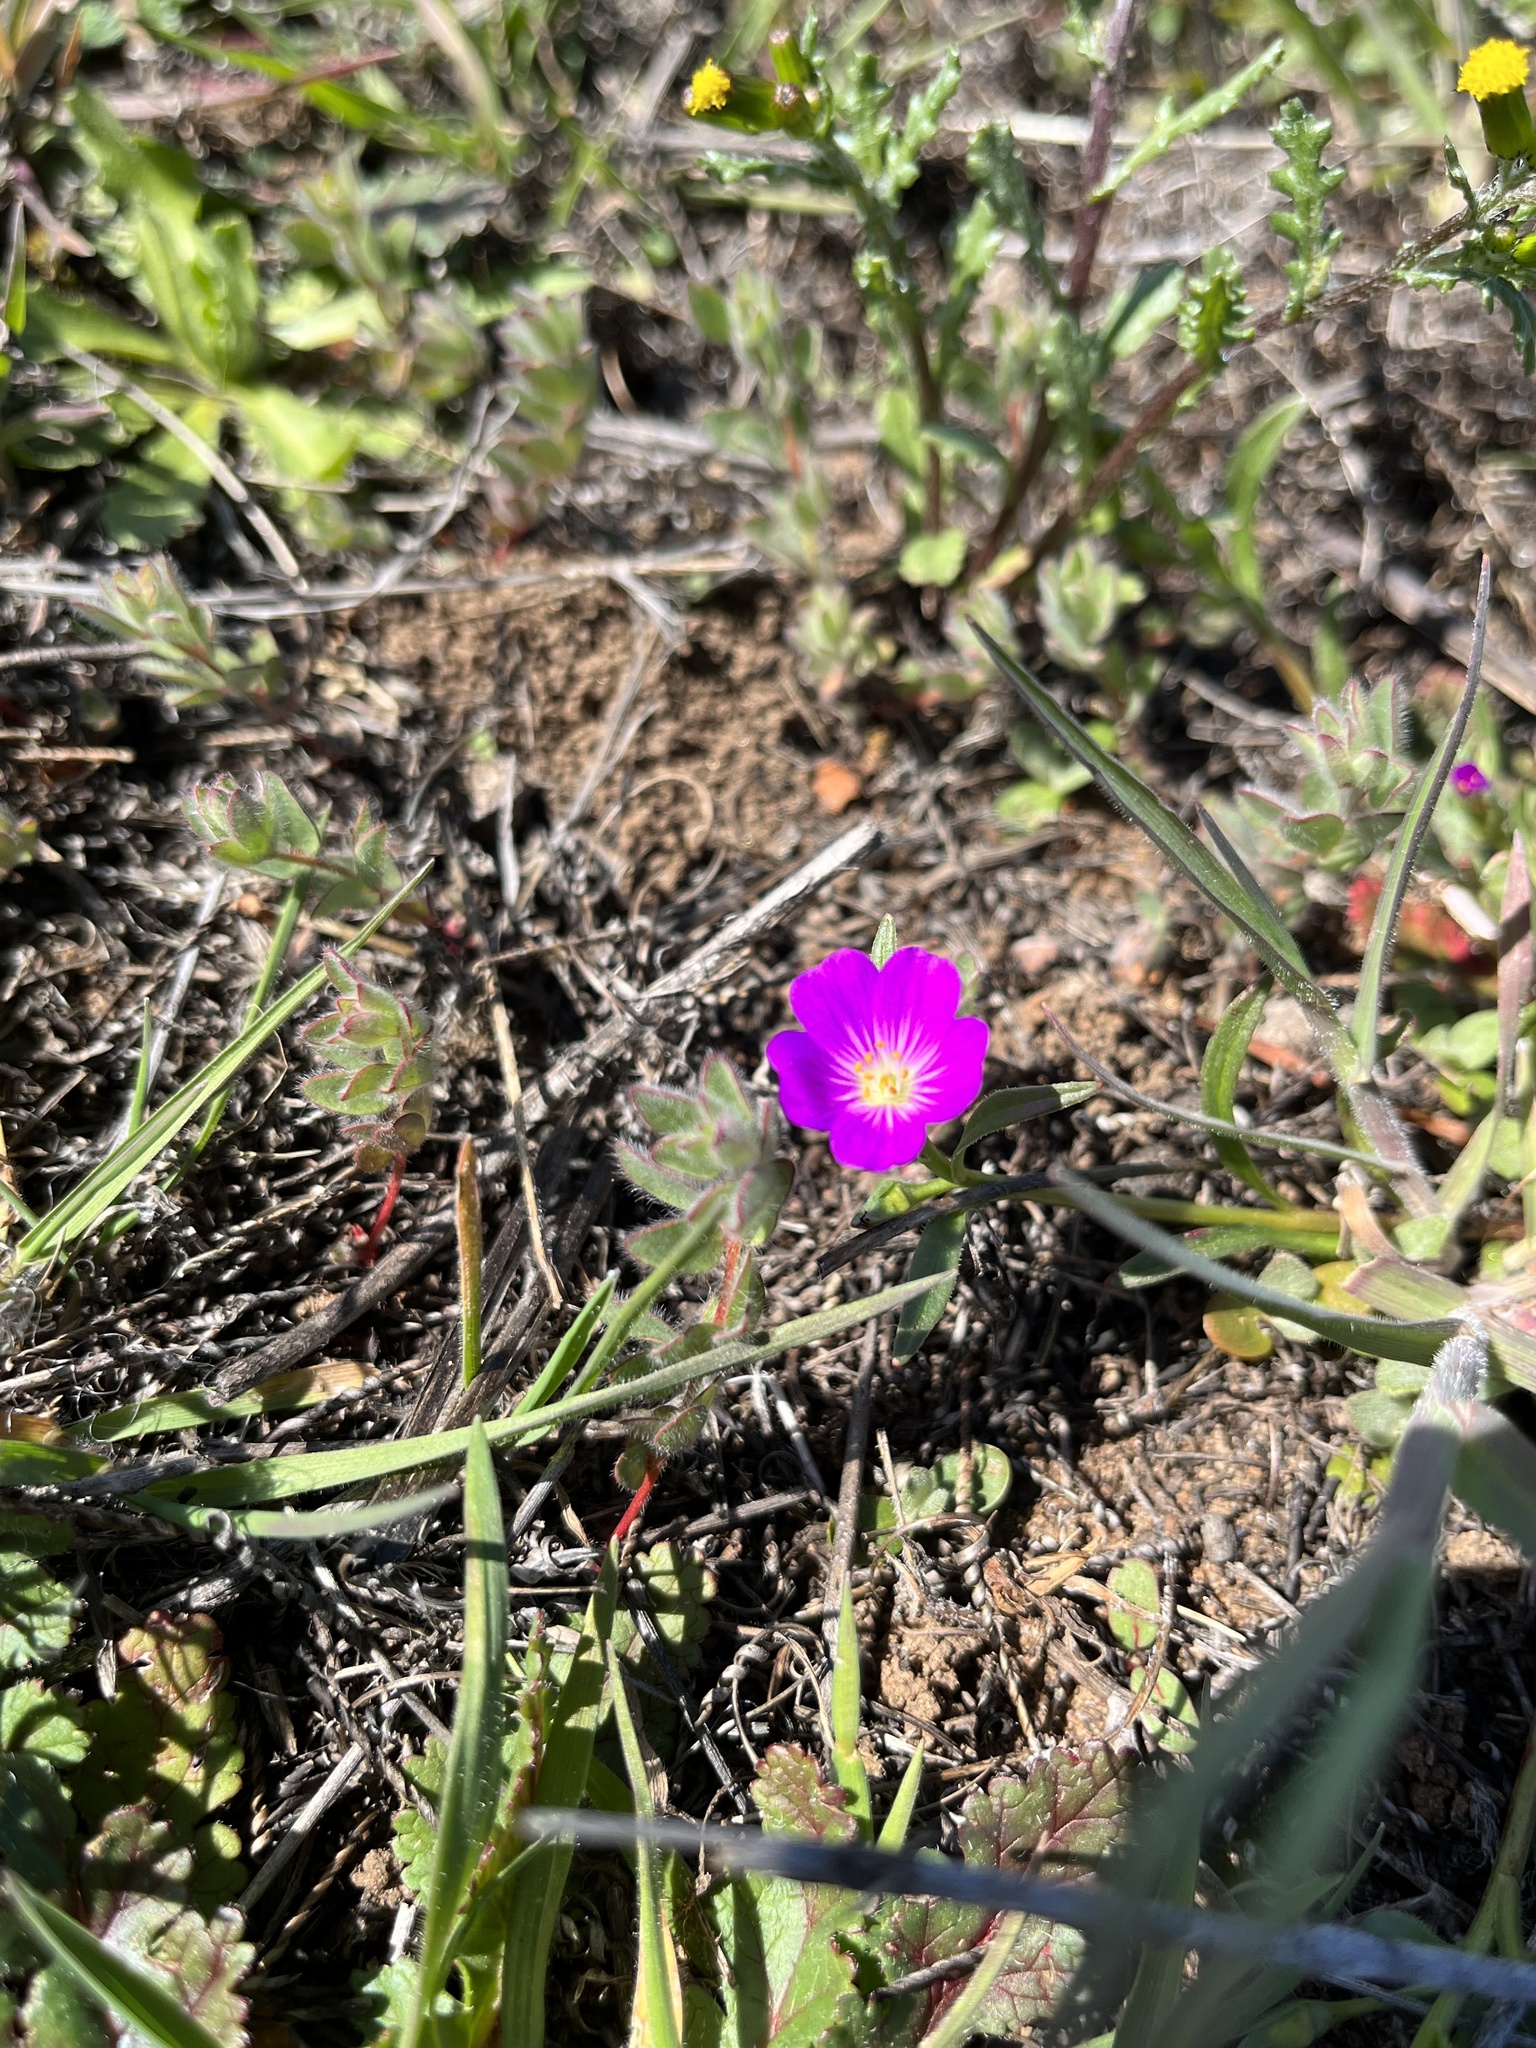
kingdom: Plantae
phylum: Tracheophyta
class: Magnoliopsida
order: Caryophyllales
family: Montiaceae
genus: Calandrinia
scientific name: Calandrinia menziesii
